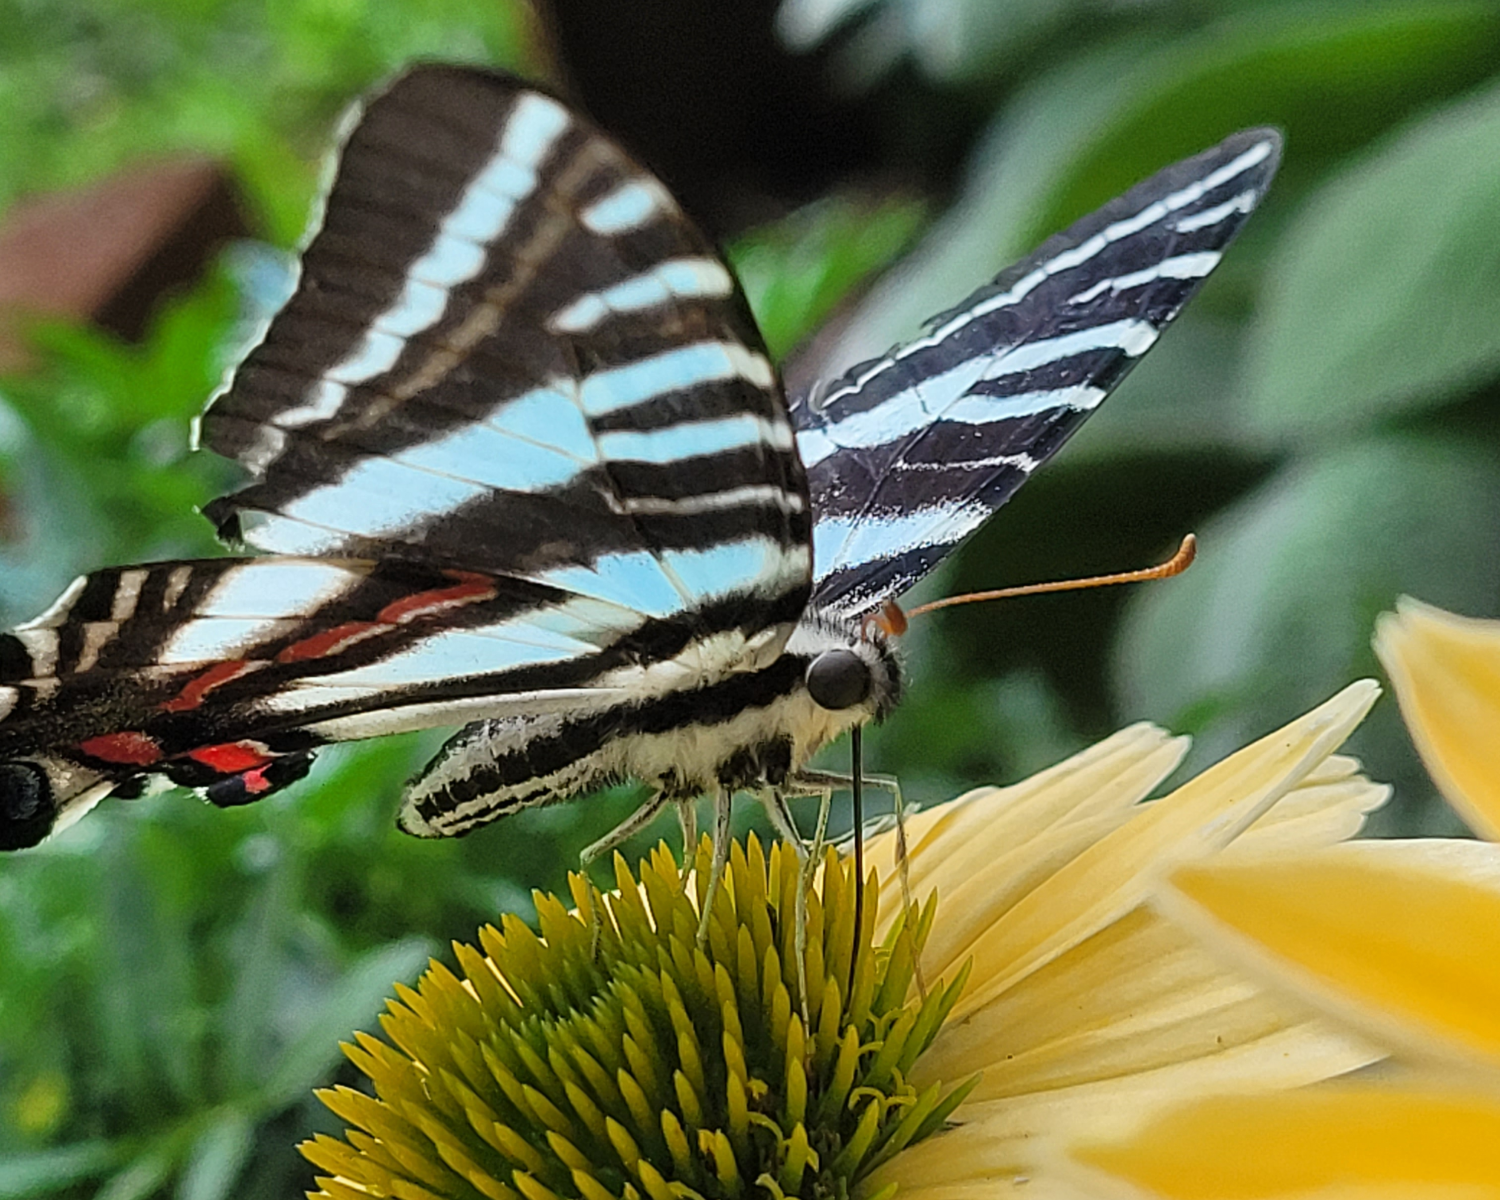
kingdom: Animalia
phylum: Arthropoda
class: Insecta
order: Lepidoptera
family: Papilionidae
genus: Protographium
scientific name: Protographium marcellus
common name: Zebra swallowtail
